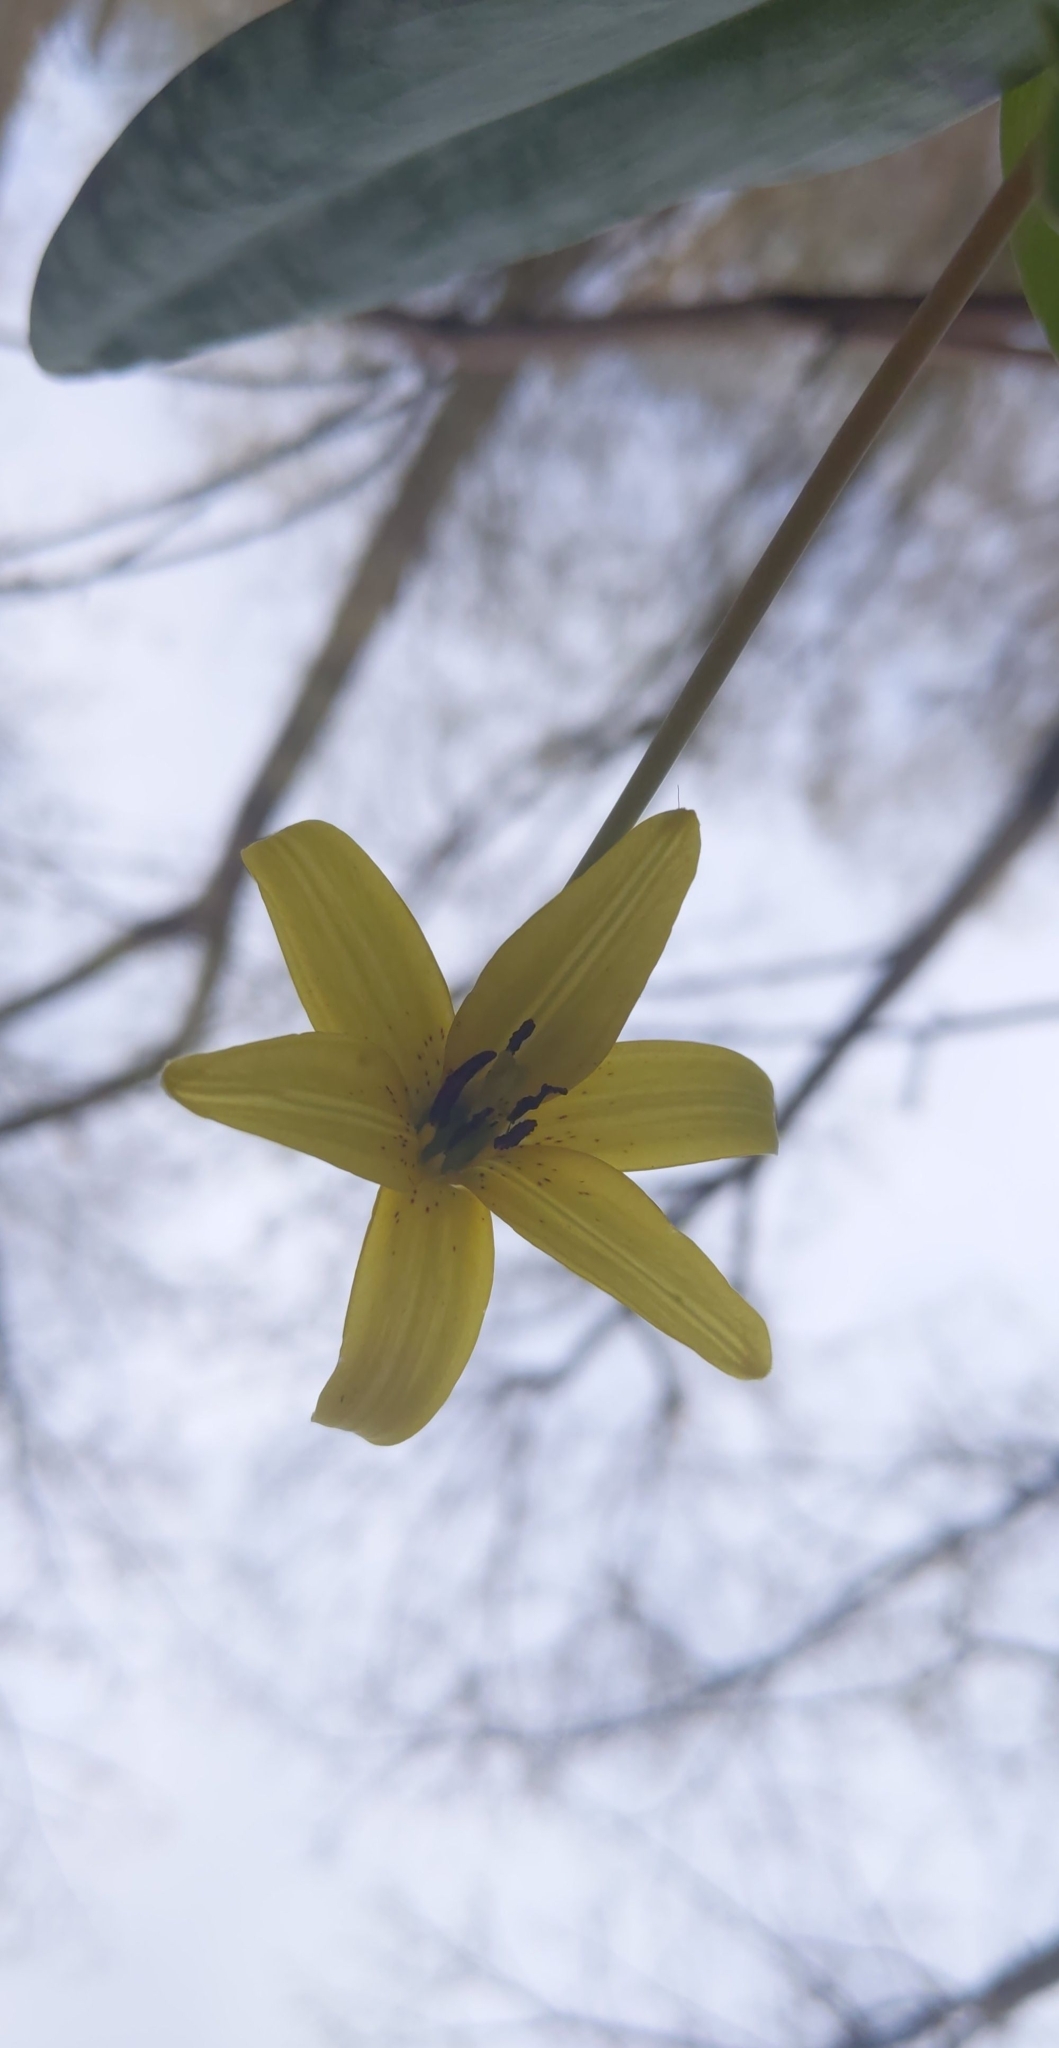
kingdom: Plantae
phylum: Tracheophyta
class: Liliopsida
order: Liliales
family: Liliaceae
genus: Erythronium
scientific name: Erythronium americanum
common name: Yellow adder's-tongue
